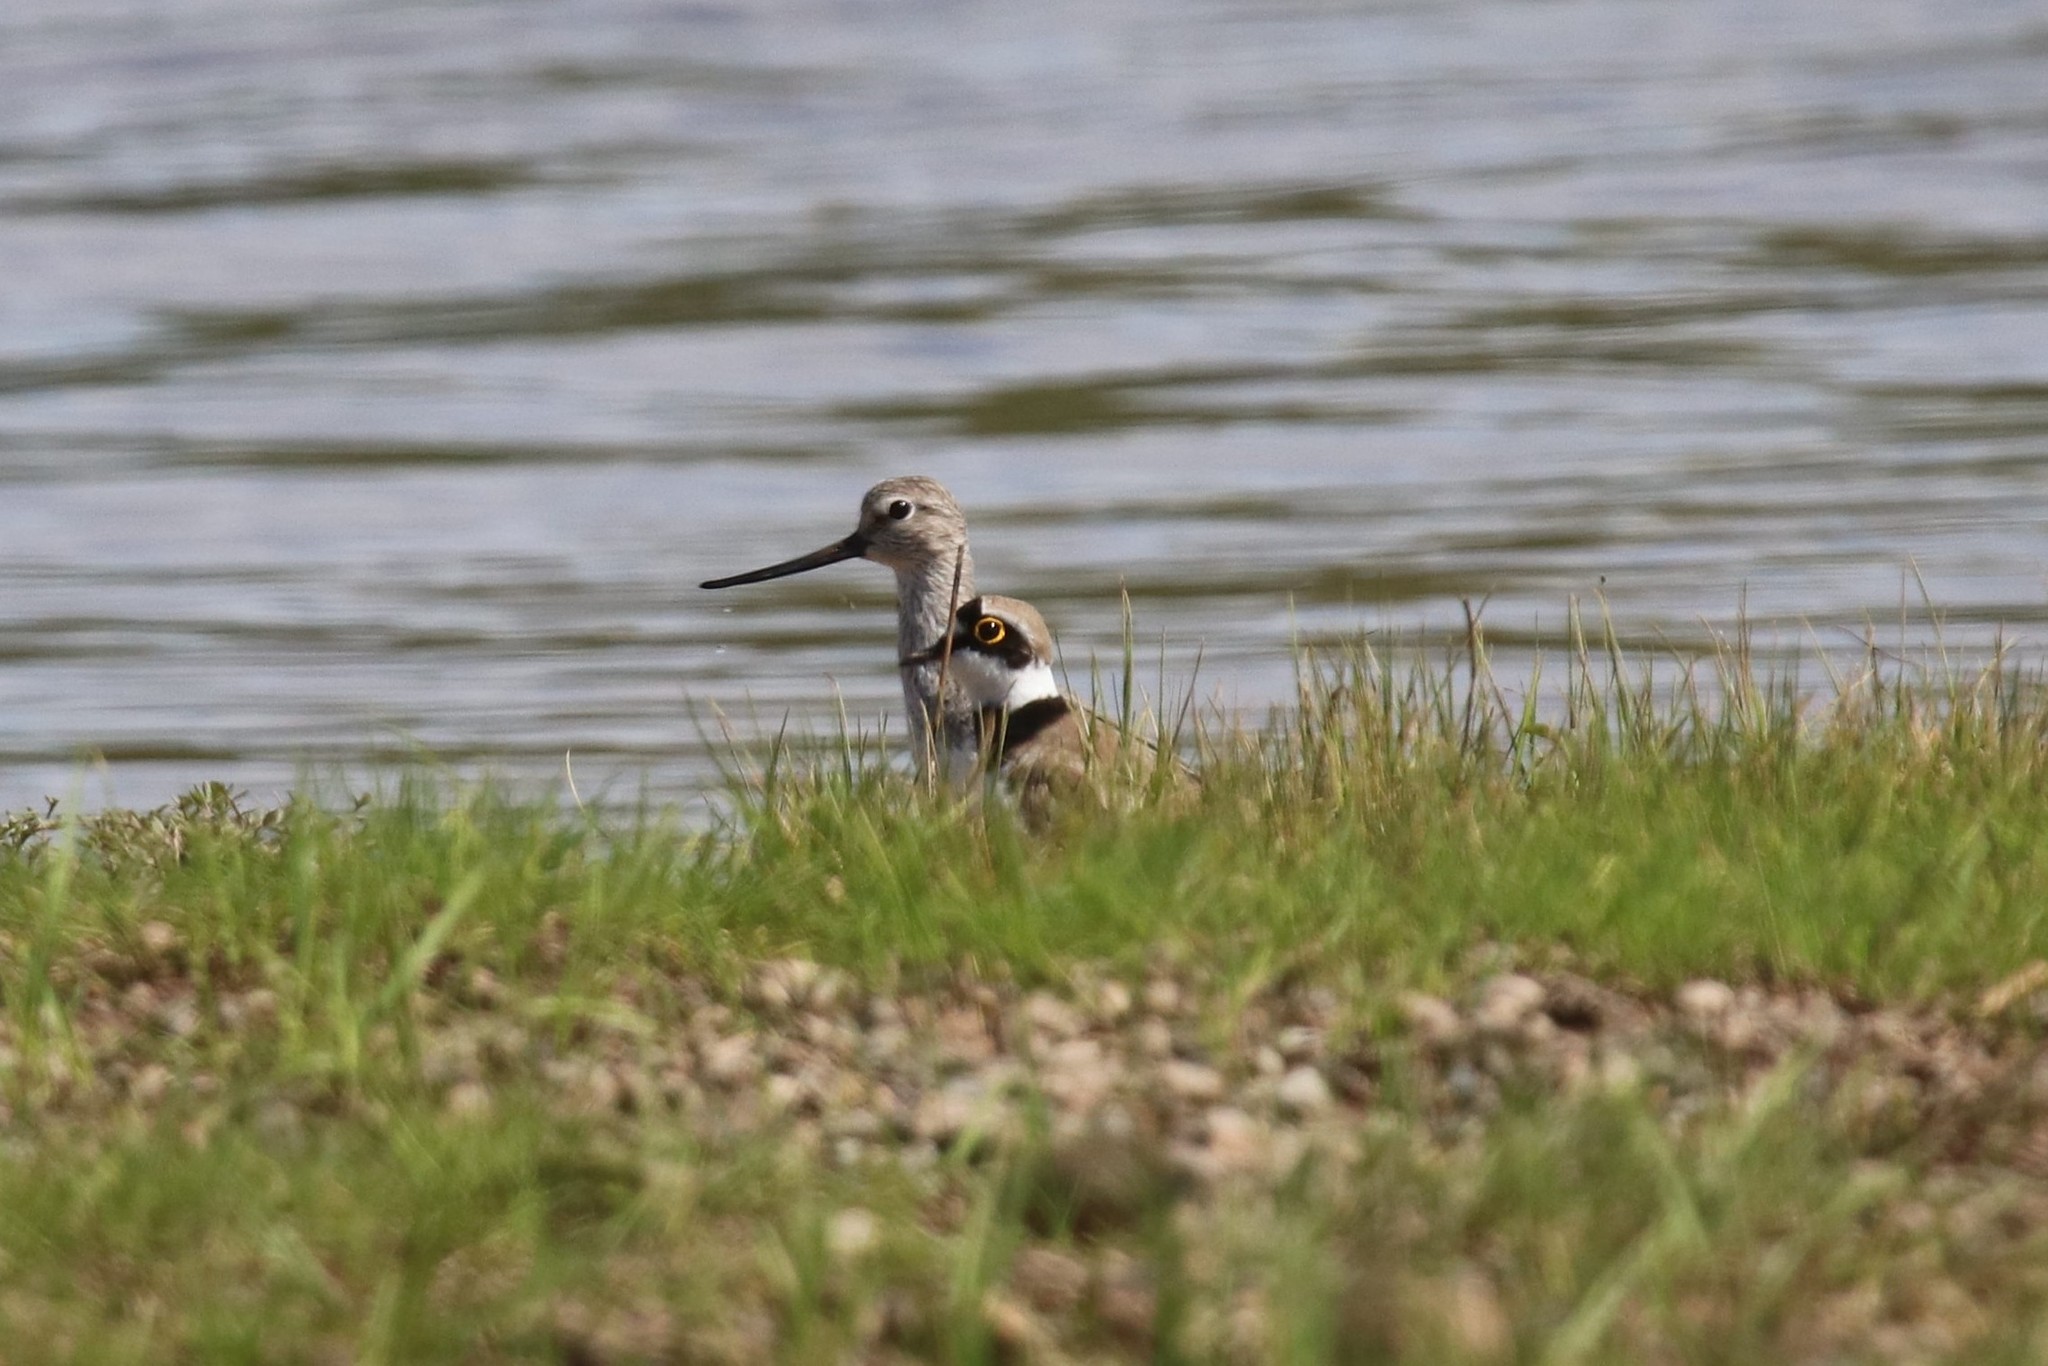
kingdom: Animalia
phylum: Chordata
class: Aves
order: Charadriiformes
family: Charadriidae
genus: Charadrius
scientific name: Charadrius dubius
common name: Little ringed plover
